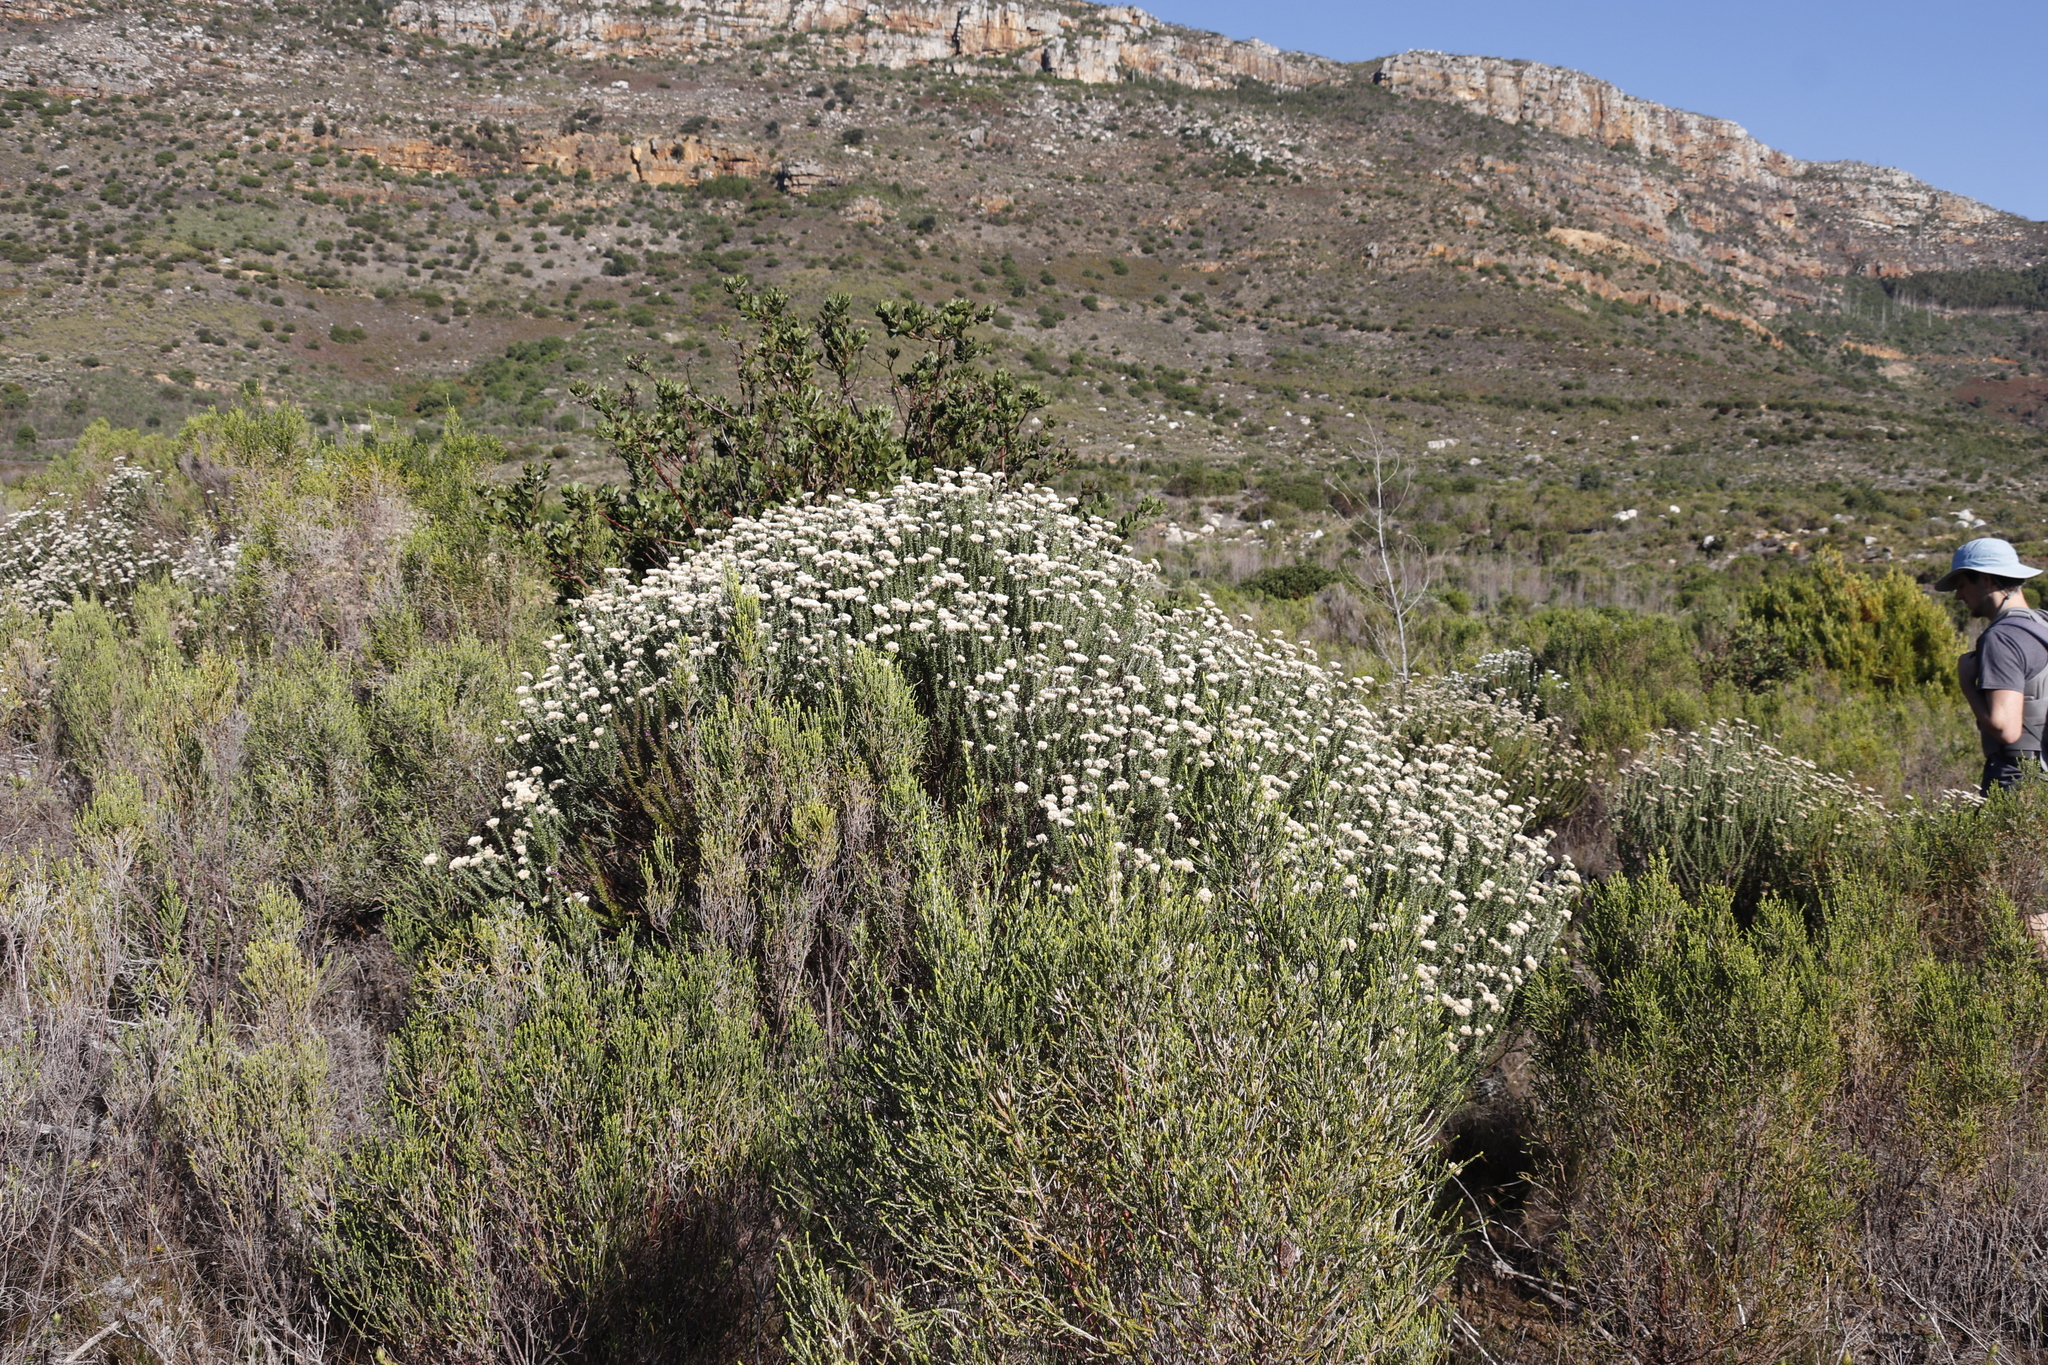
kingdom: Plantae
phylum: Tracheophyta
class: Magnoliopsida
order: Asterales
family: Asteraceae
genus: Metalasia
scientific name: Metalasia densa
